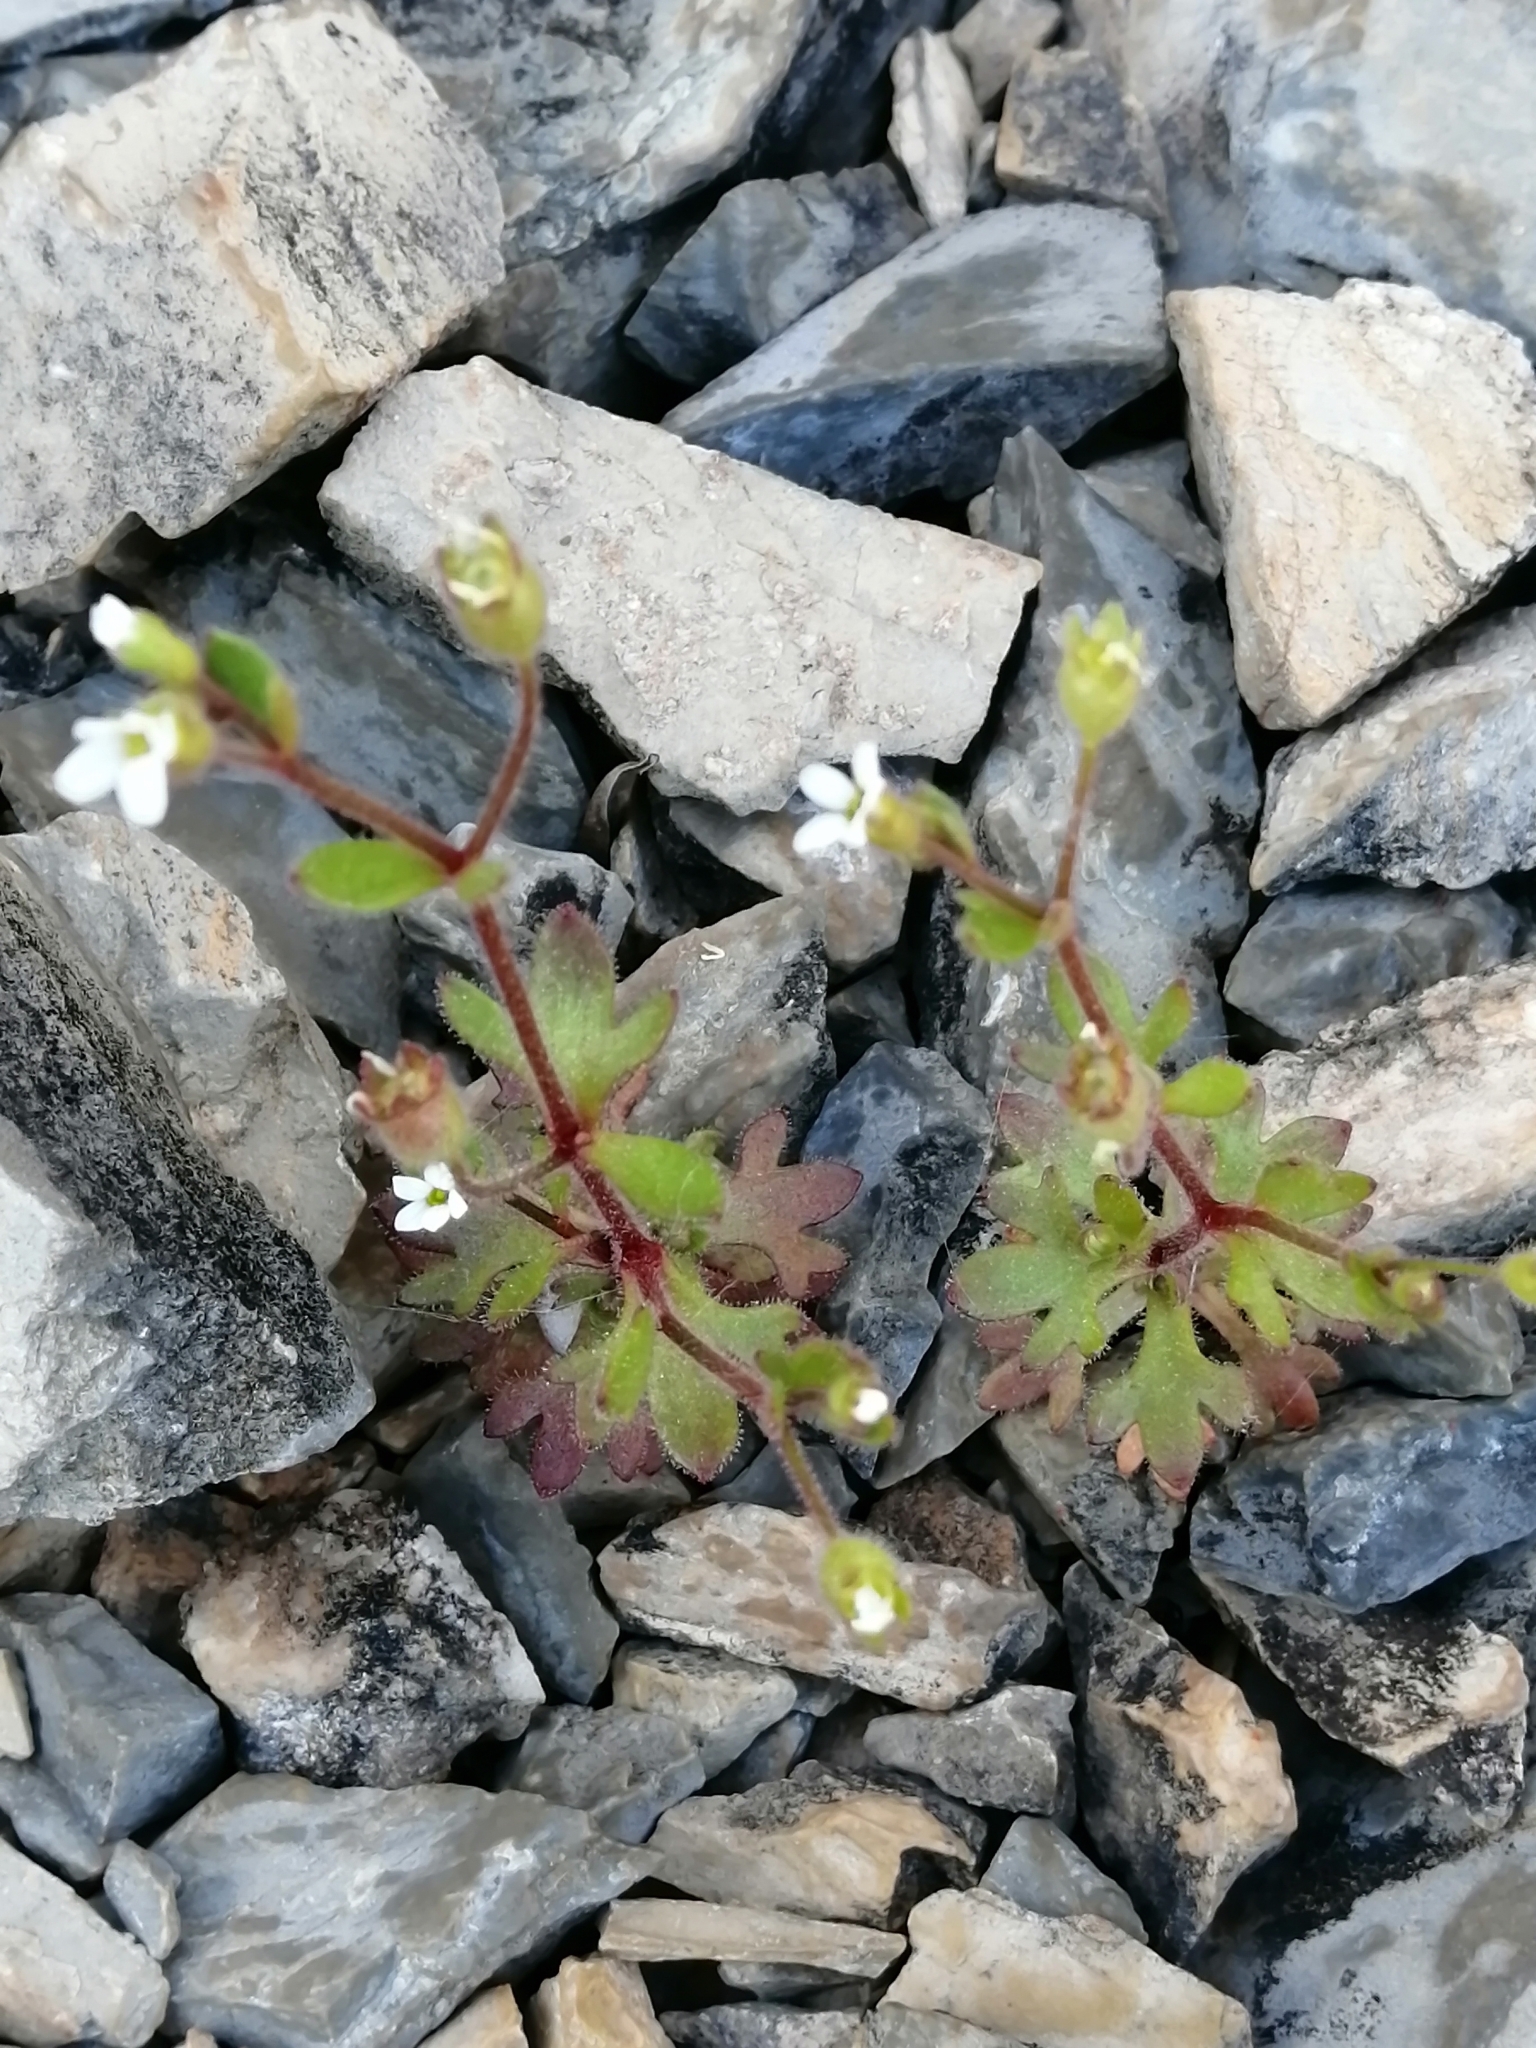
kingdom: Plantae
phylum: Tracheophyta
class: Magnoliopsida
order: Saxifragales
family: Saxifragaceae
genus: Saxifraga
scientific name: Saxifraga tridactylites
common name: Rue-leaved saxifrage
